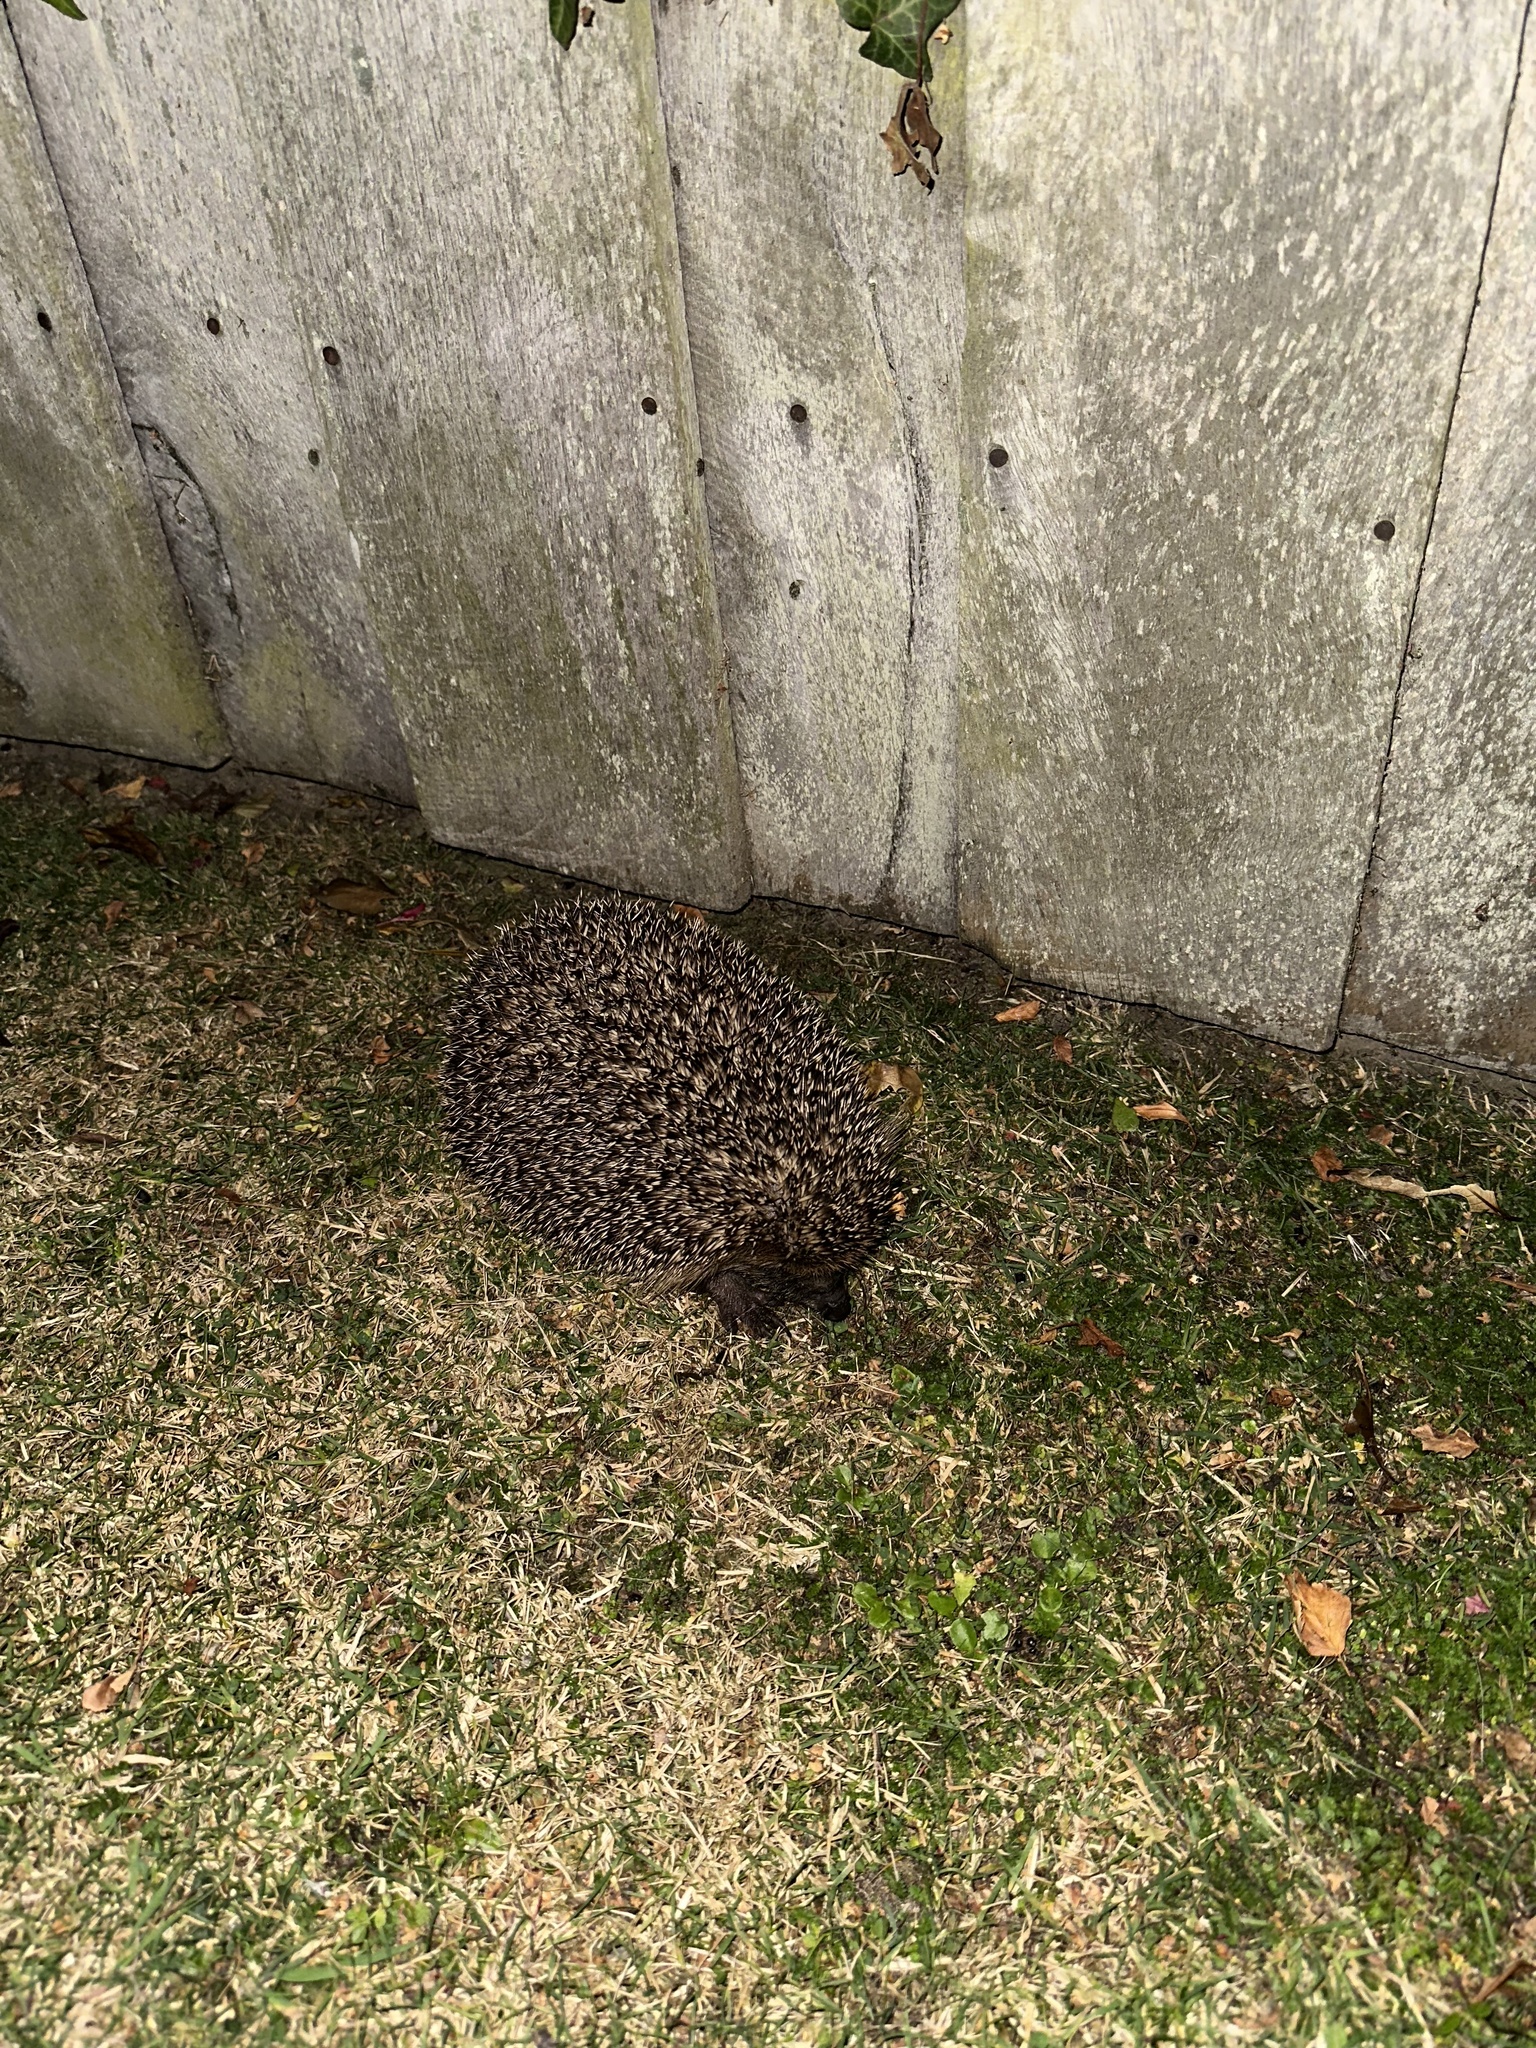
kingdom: Animalia
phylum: Chordata
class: Mammalia
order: Erinaceomorpha
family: Erinaceidae
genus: Erinaceus
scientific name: Erinaceus europaeus
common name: West european hedgehog
